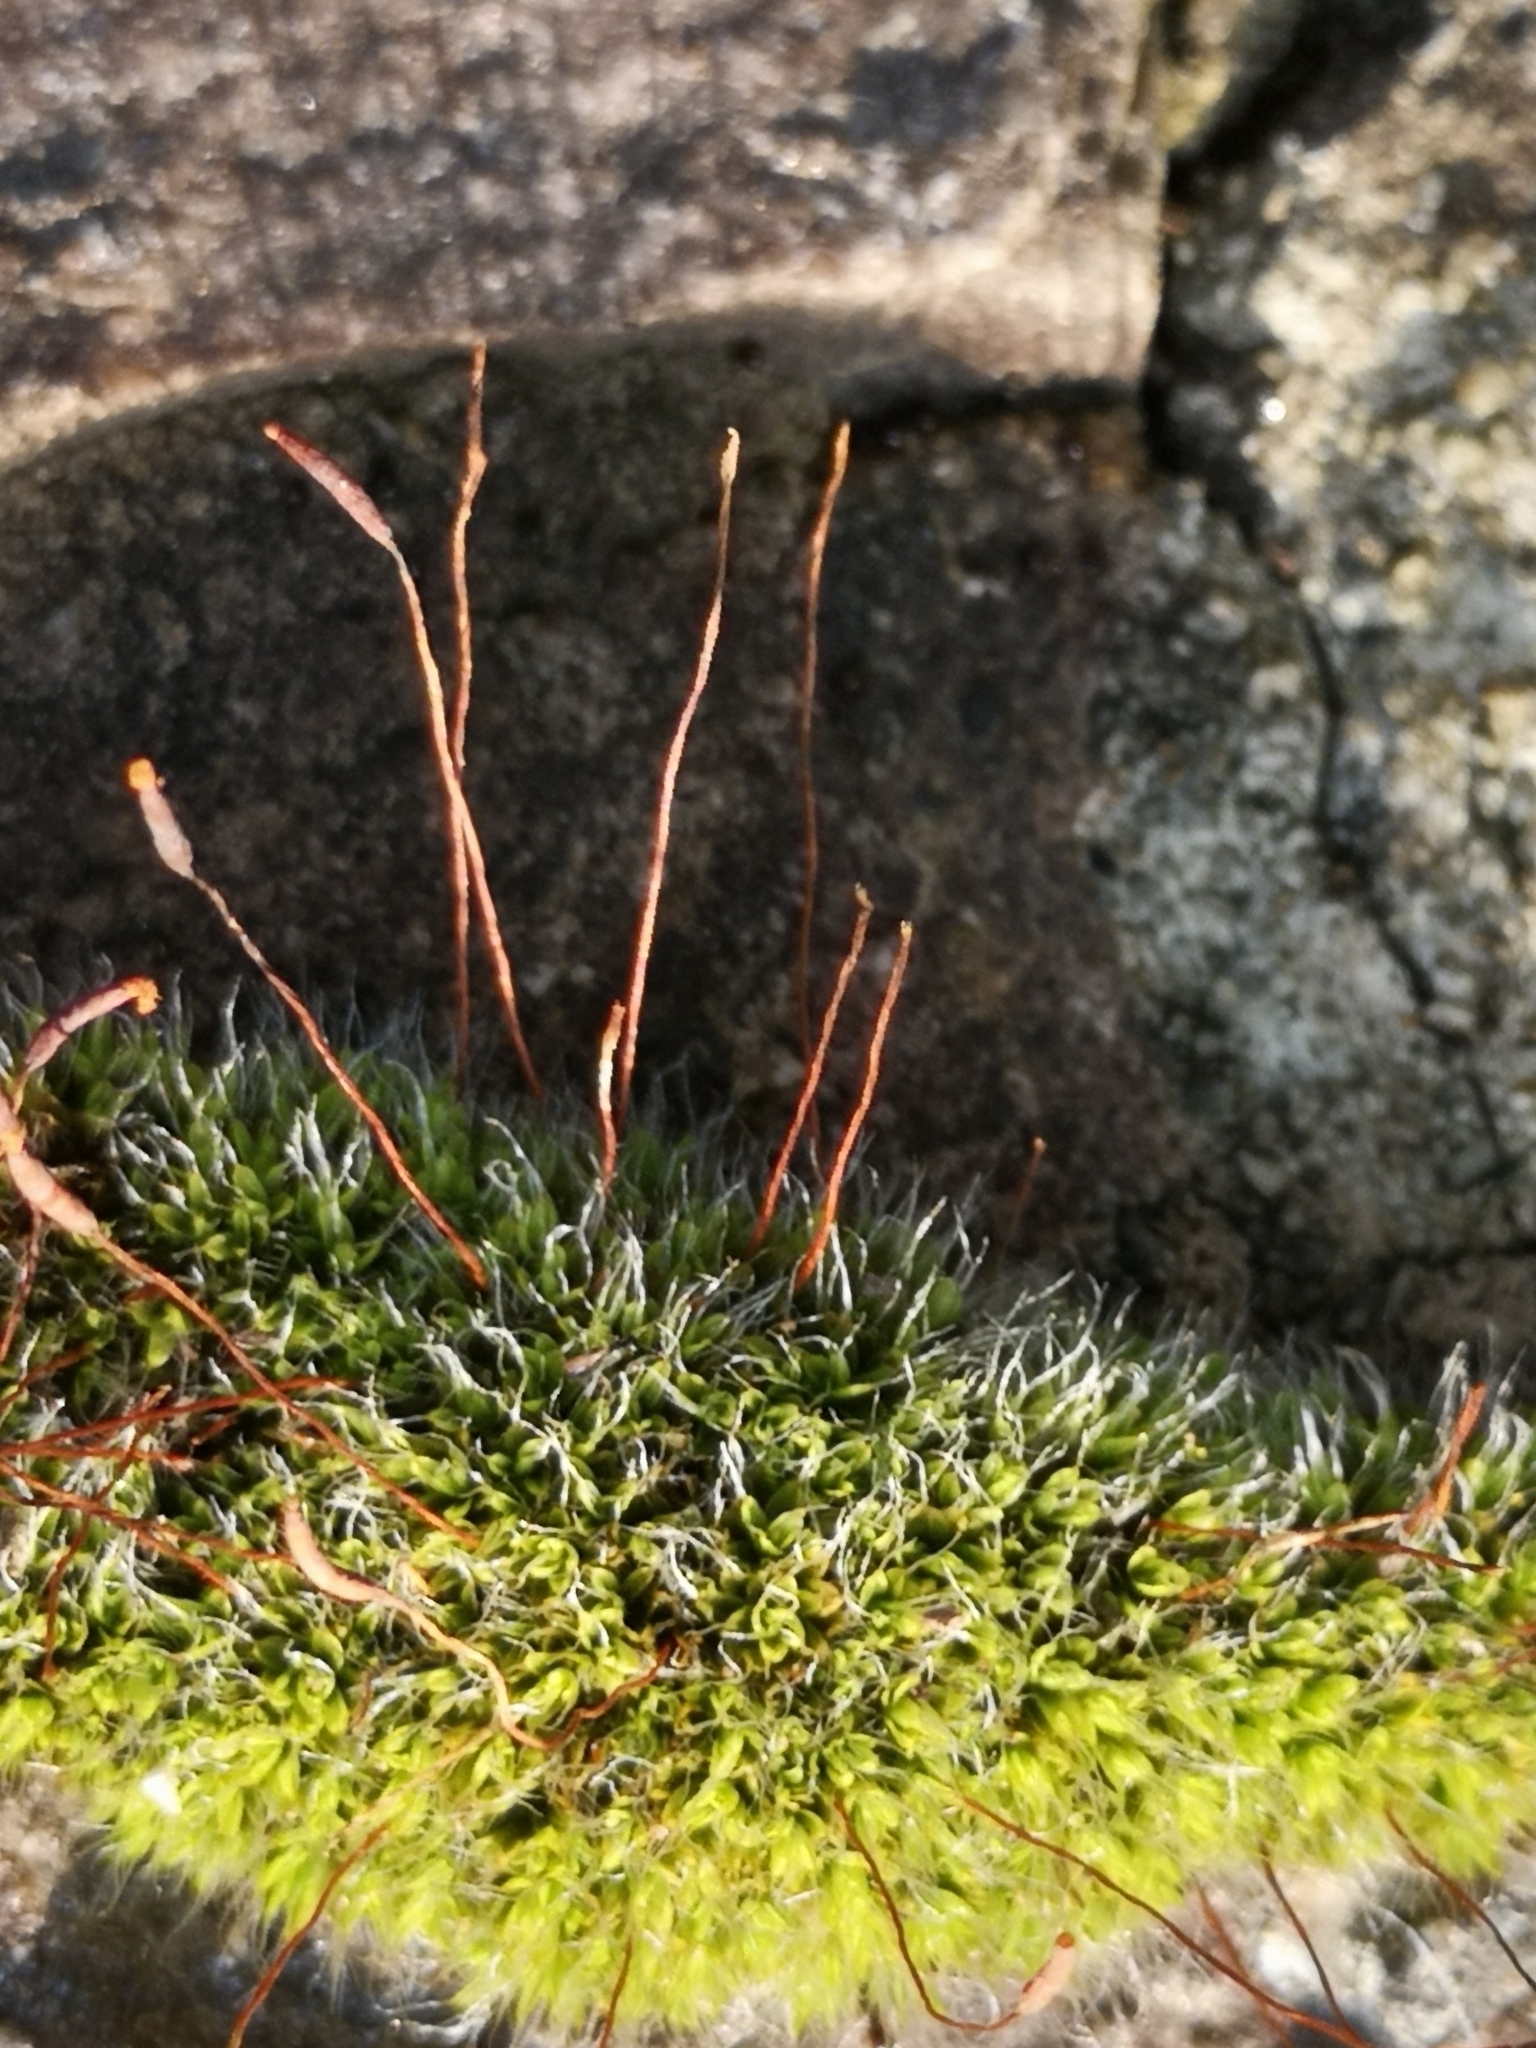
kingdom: Plantae
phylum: Bryophyta
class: Bryopsida
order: Pottiales
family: Pottiaceae
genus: Tortula
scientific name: Tortula muralis
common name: Wall screw-moss
